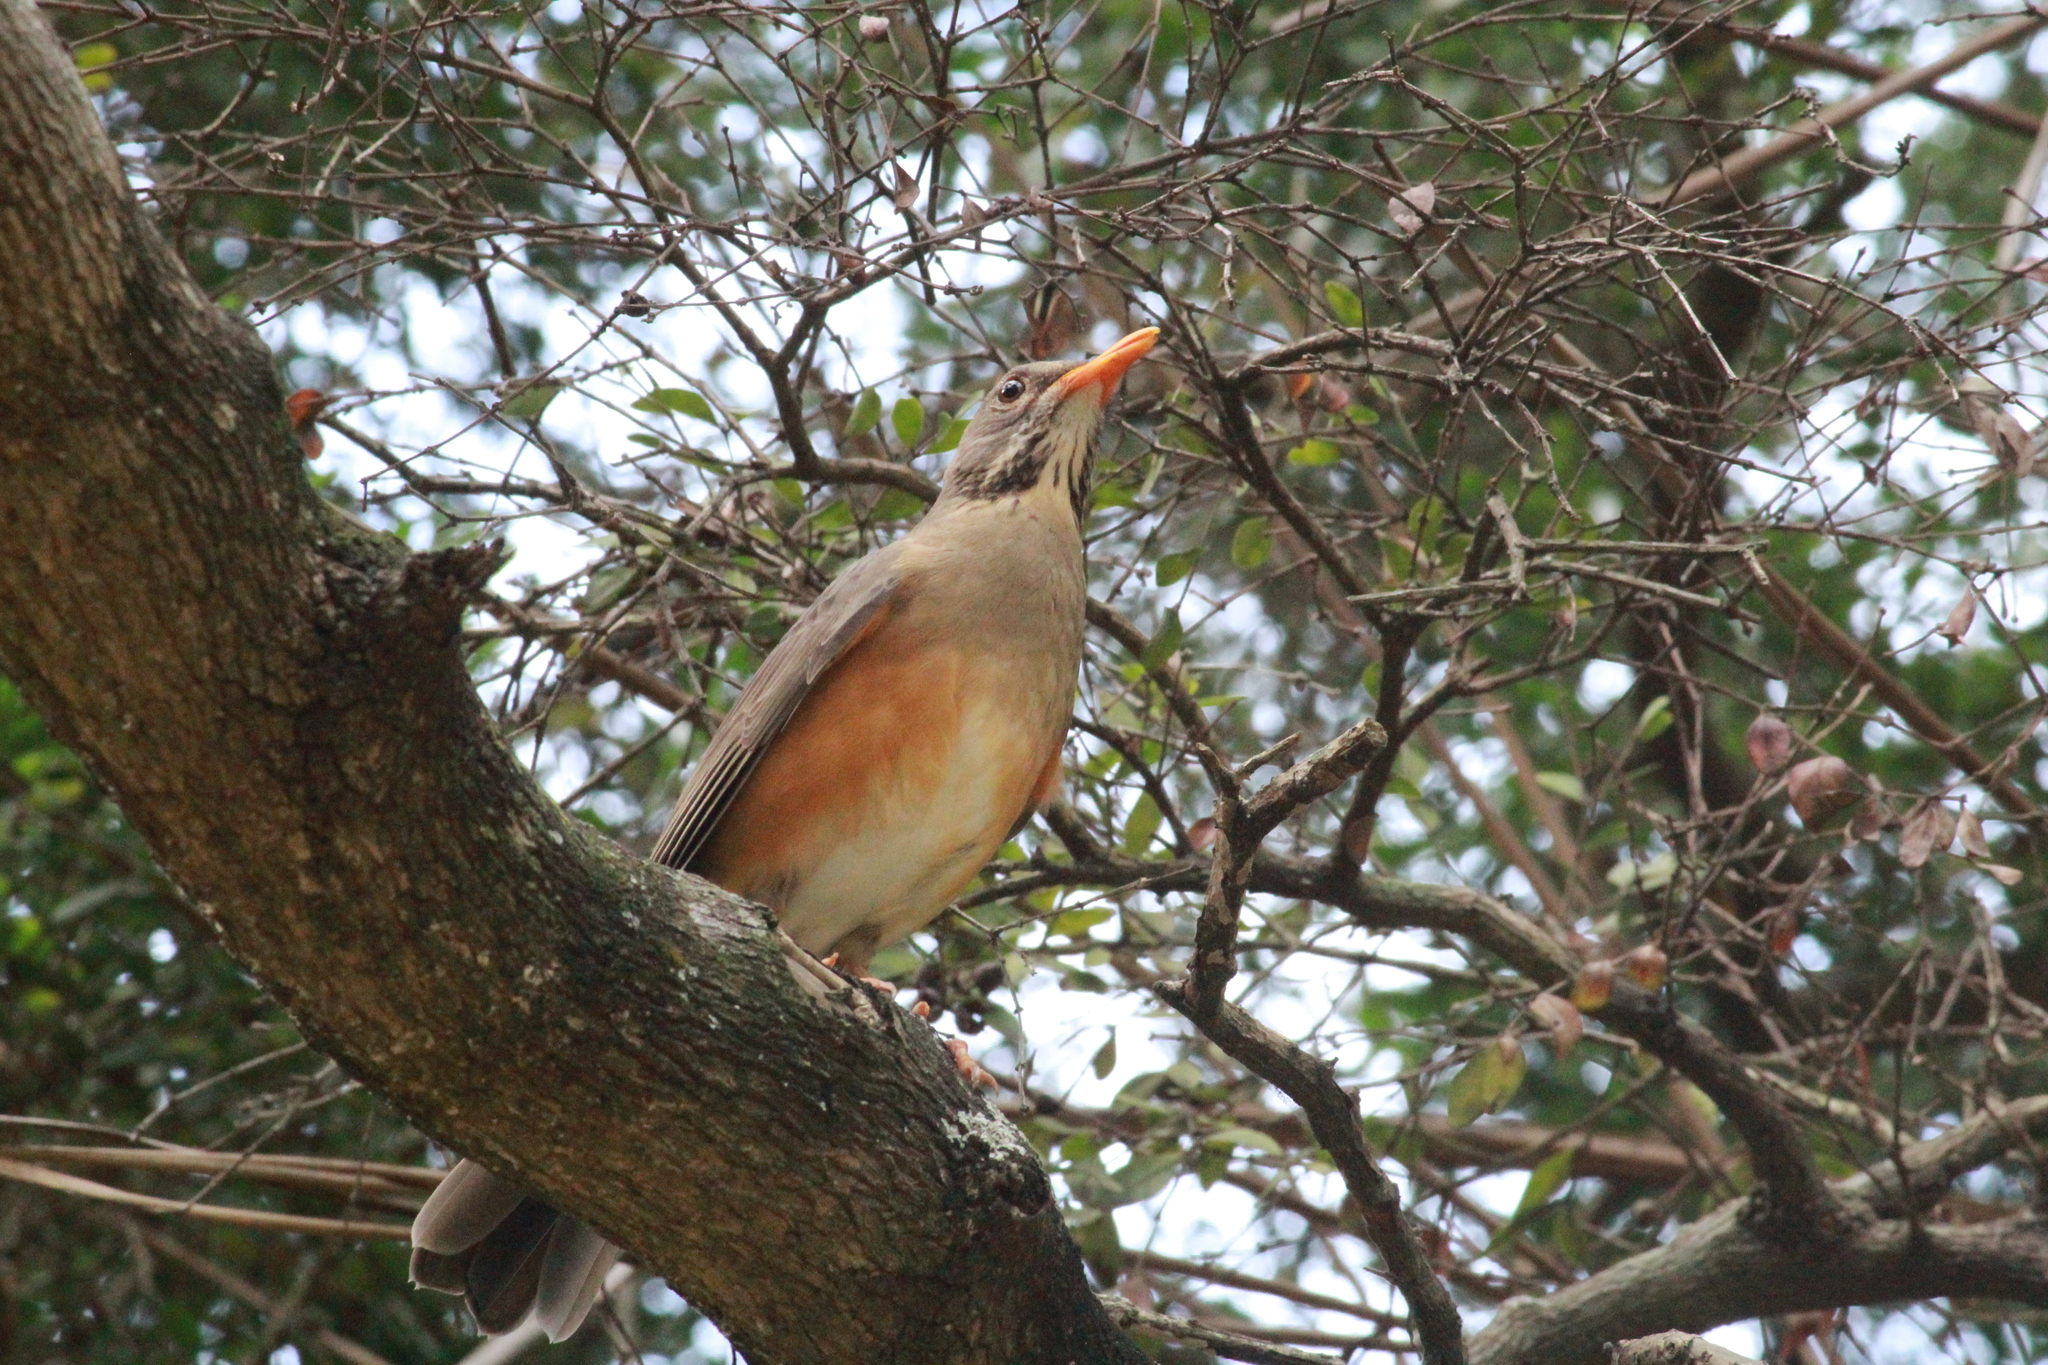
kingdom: Animalia
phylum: Chordata
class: Aves
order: Passeriformes
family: Turdidae
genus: Turdus
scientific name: Turdus libonyana
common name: Kurrichane thrush
